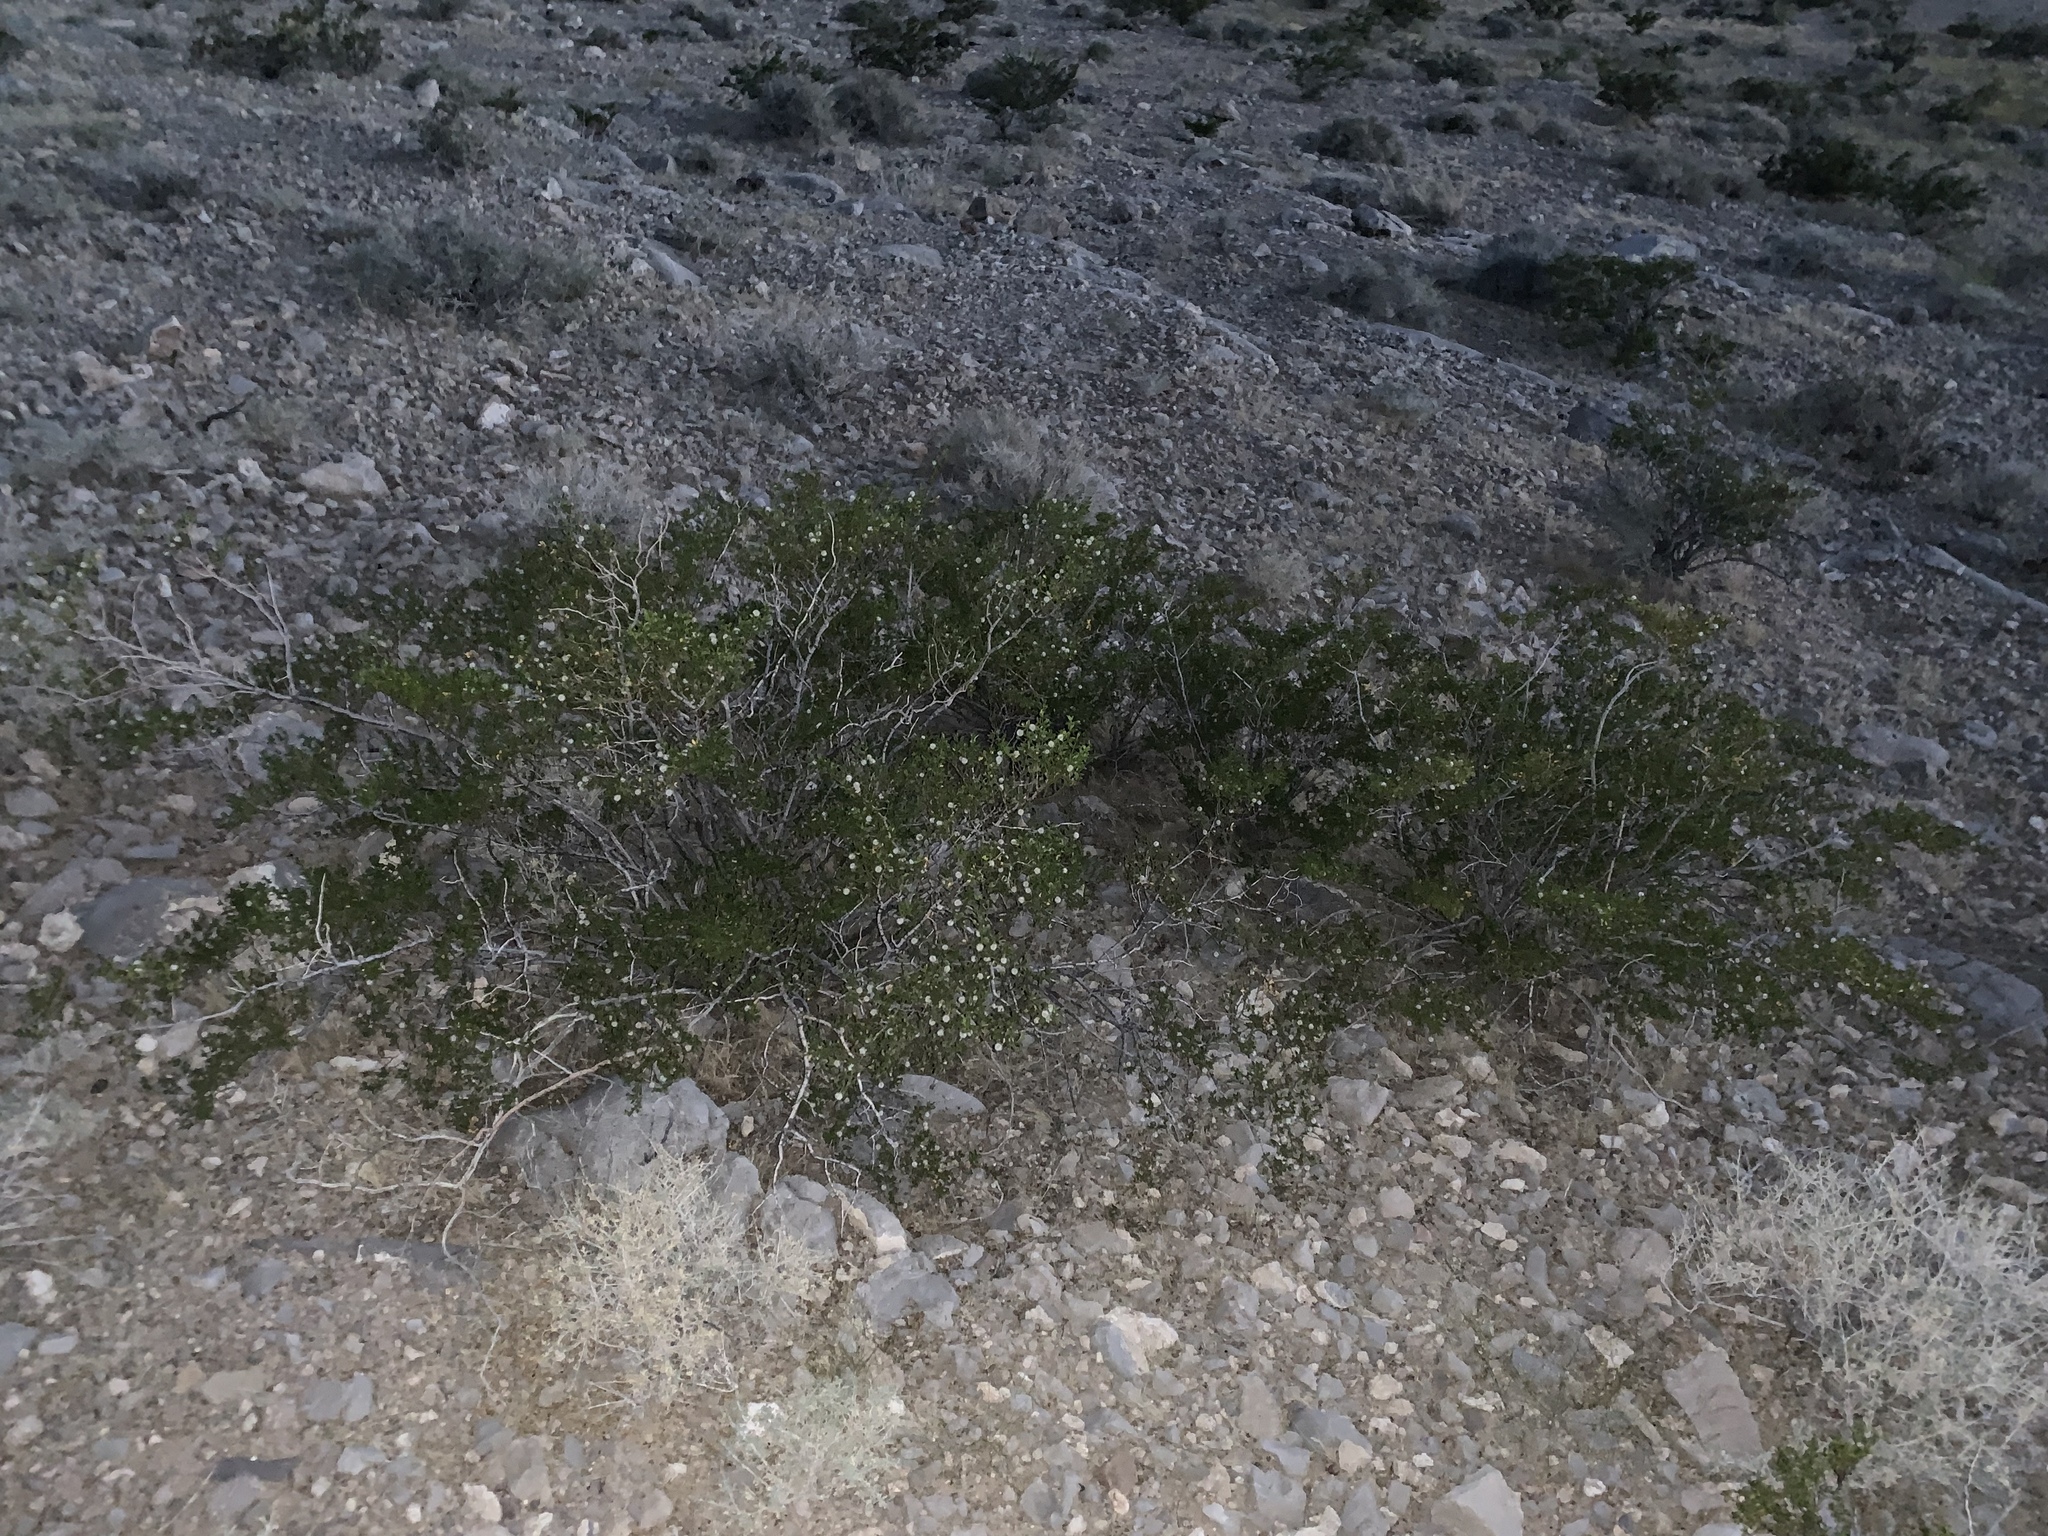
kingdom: Plantae
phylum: Tracheophyta
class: Magnoliopsida
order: Zygophyllales
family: Zygophyllaceae
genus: Larrea
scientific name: Larrea tridentata
